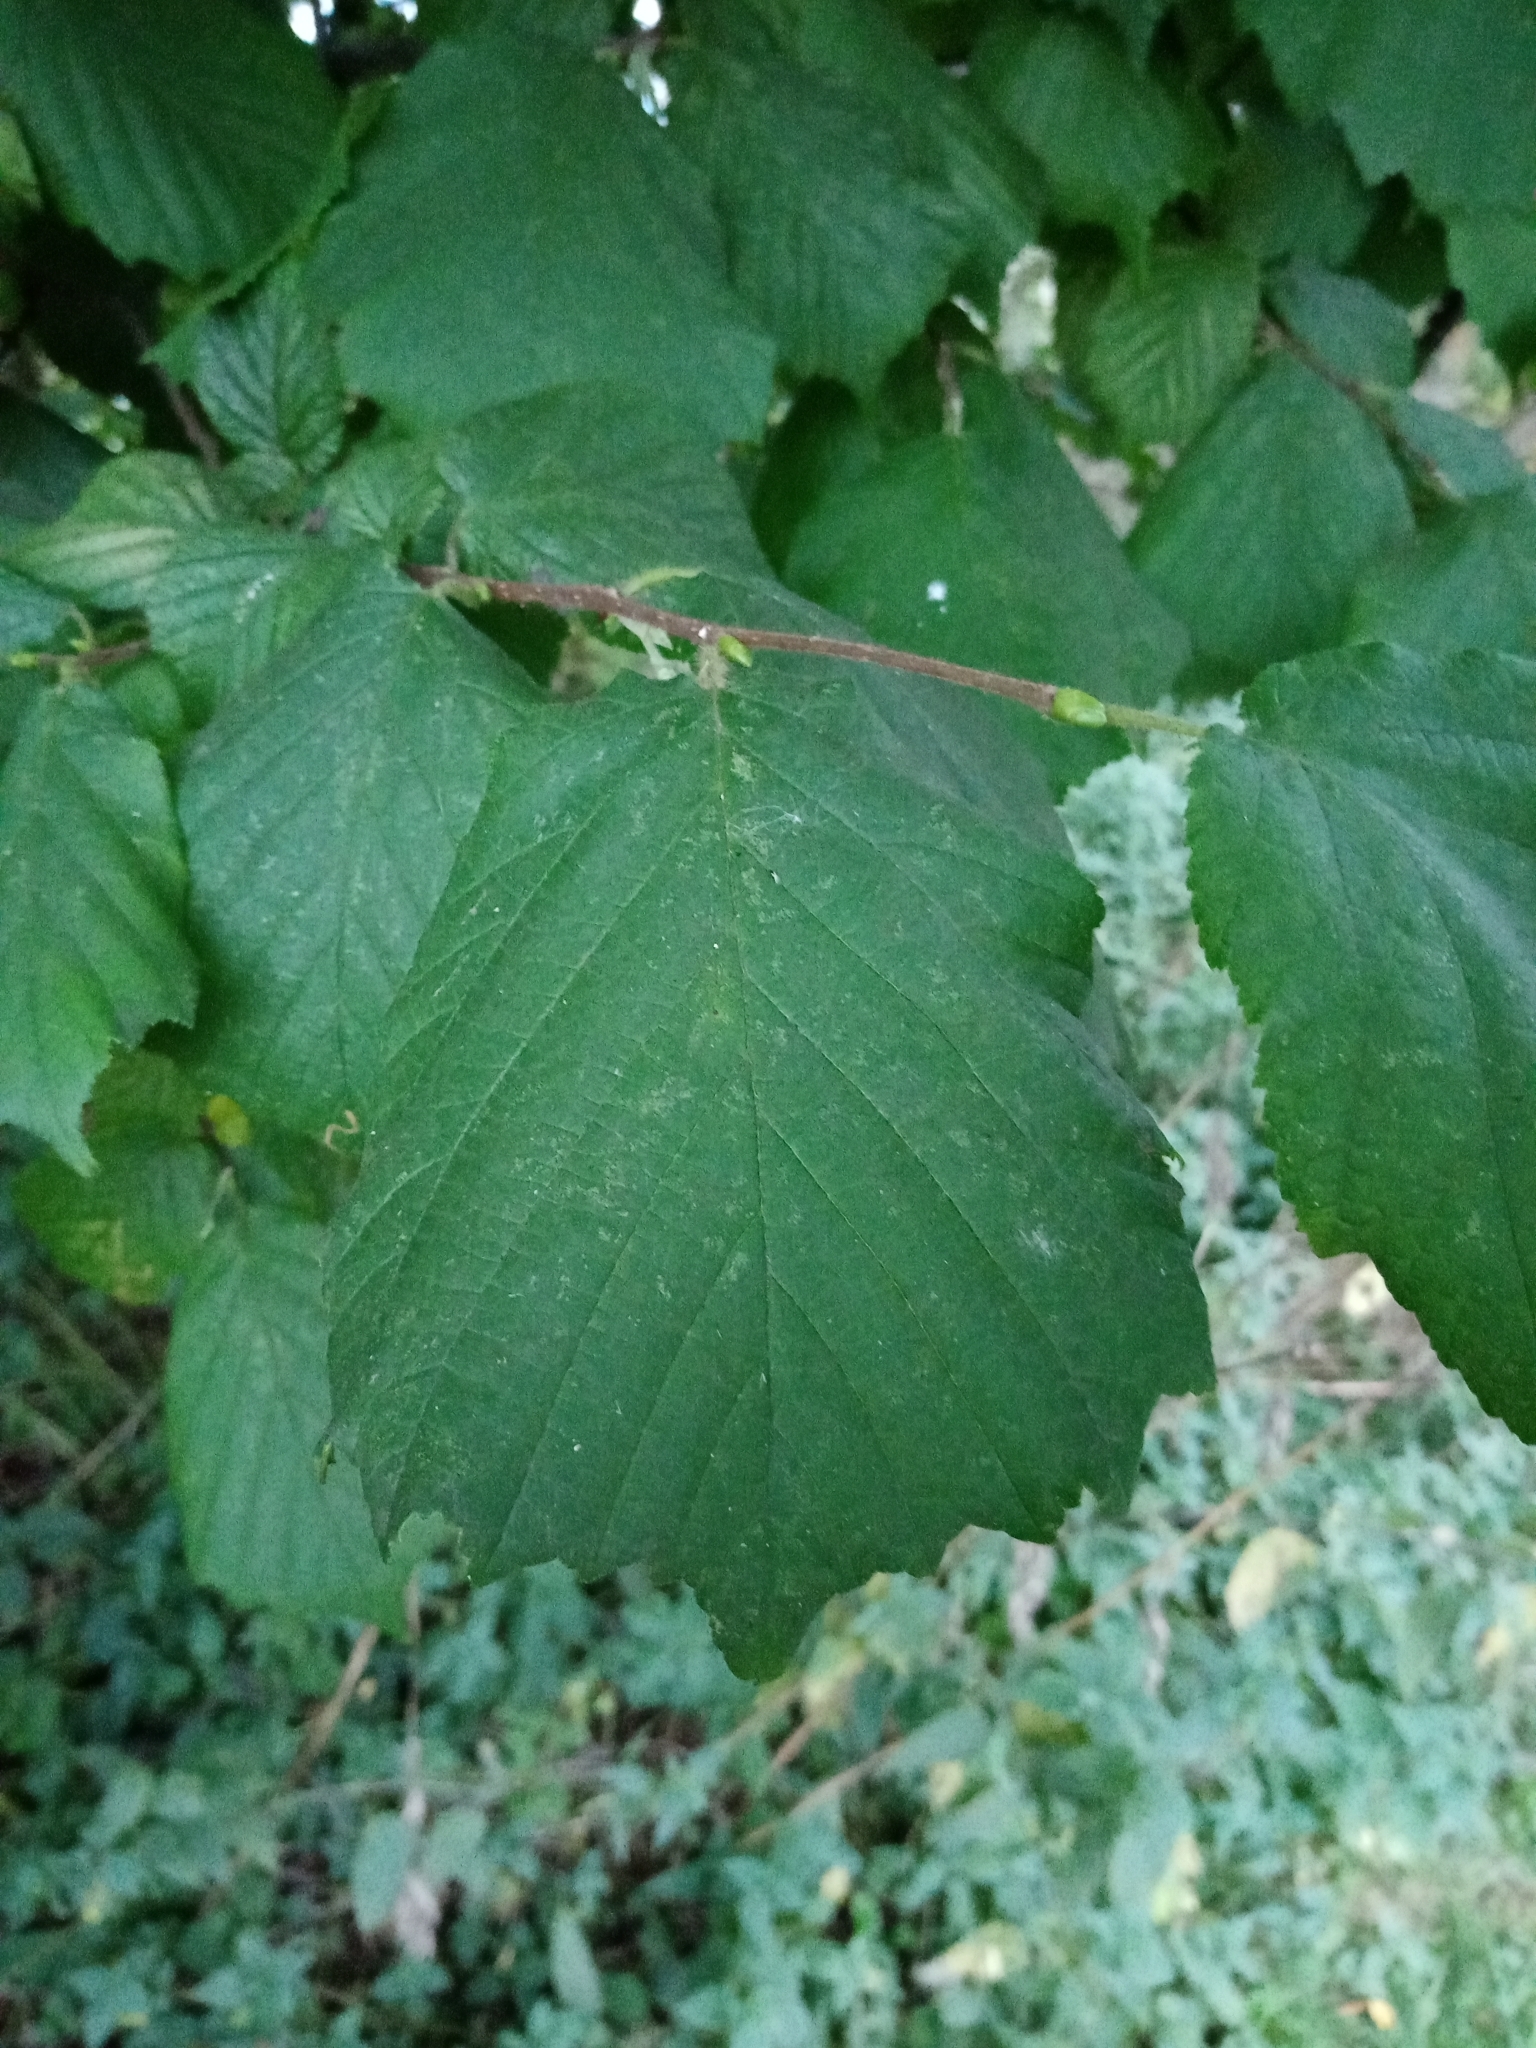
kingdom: Plantae
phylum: Tracheophyta
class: Magnoliopsida
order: Fagales
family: Betulaceae
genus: Corylus
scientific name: Corylus avellana
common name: European hazel
